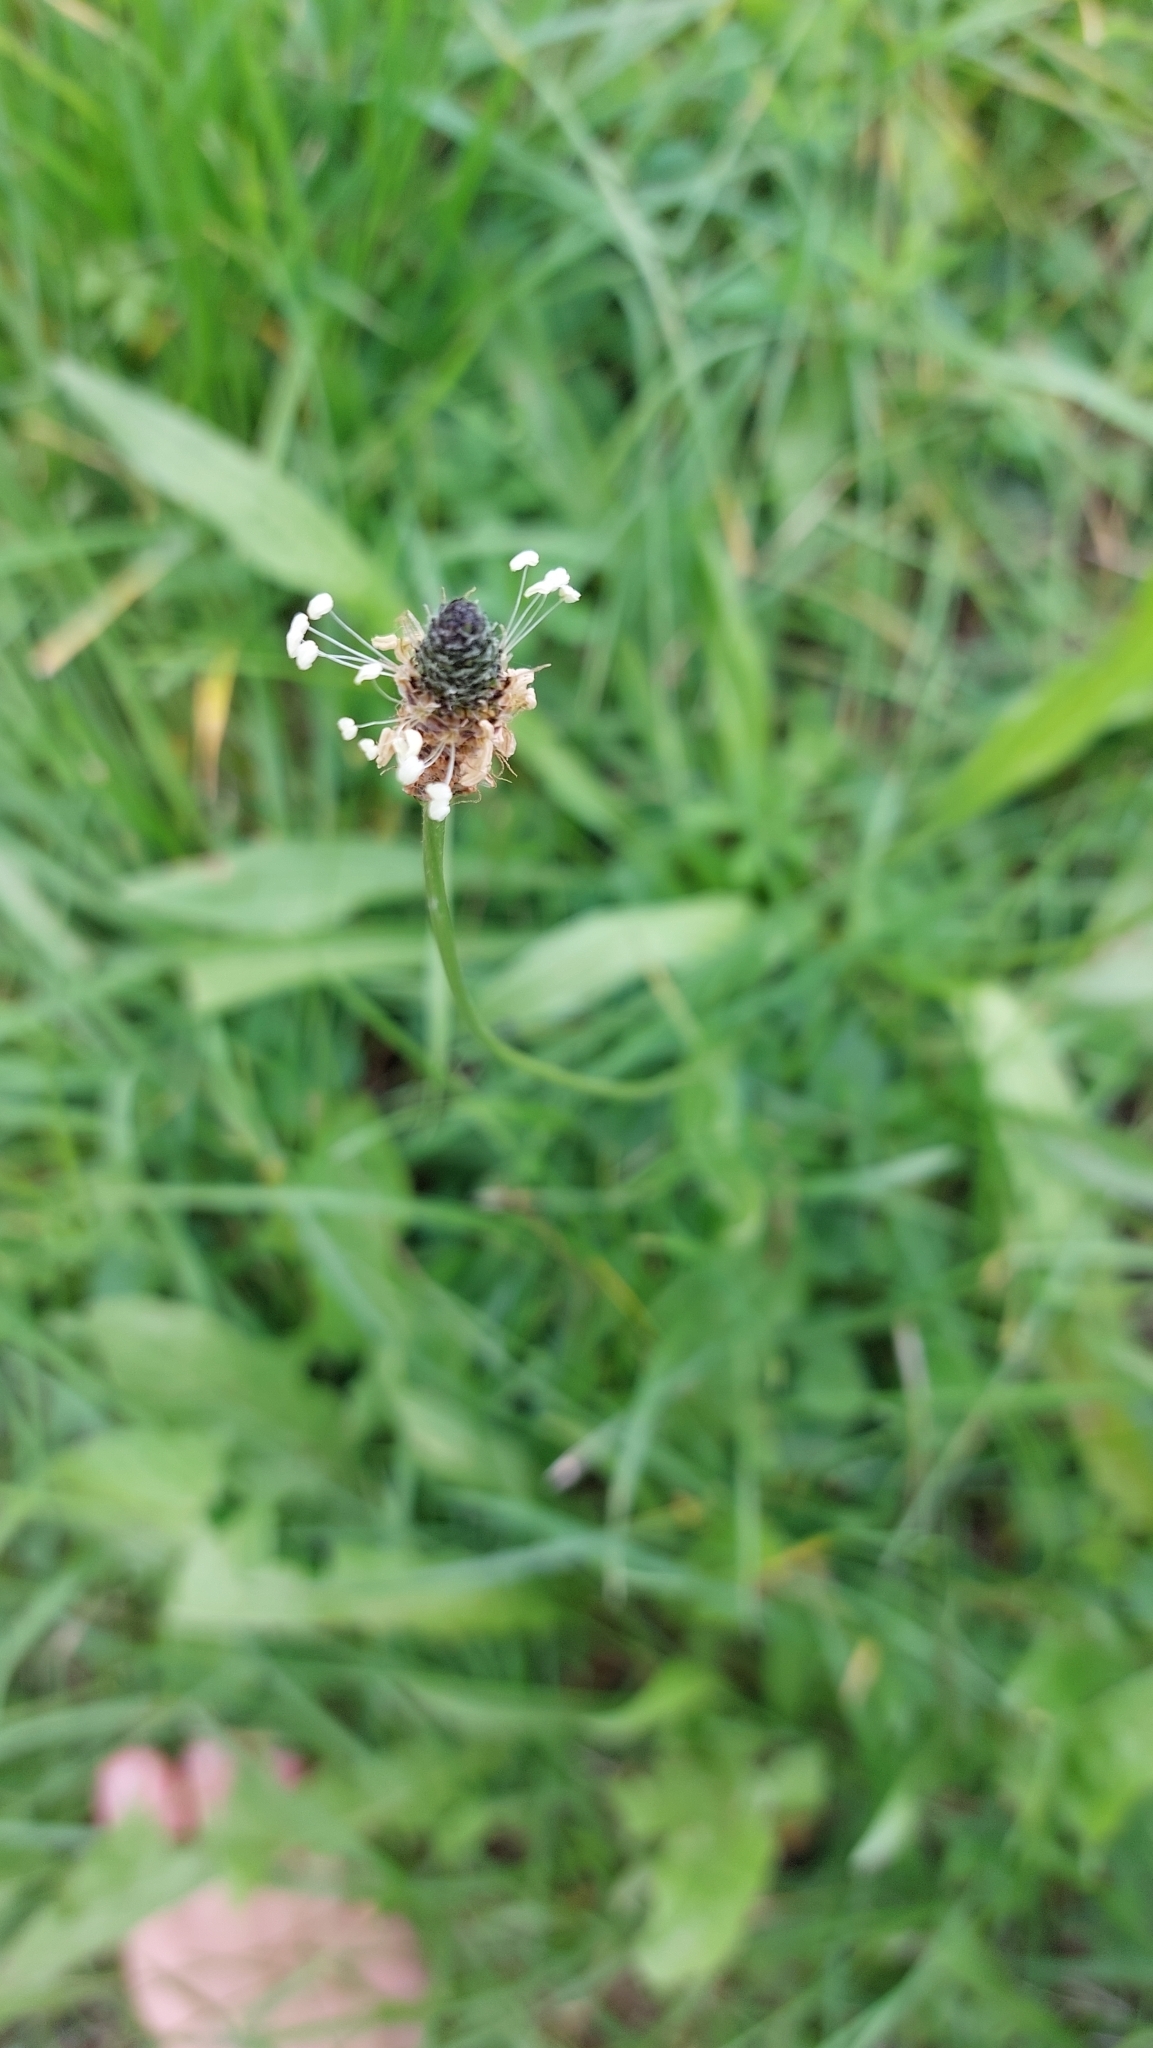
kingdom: Plantae
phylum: Tracheophyta
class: Magnoliopsida
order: Lamiales
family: Plantaginaceae
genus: Plantago
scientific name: Plantago lanceolata
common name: Ribwort plantain
